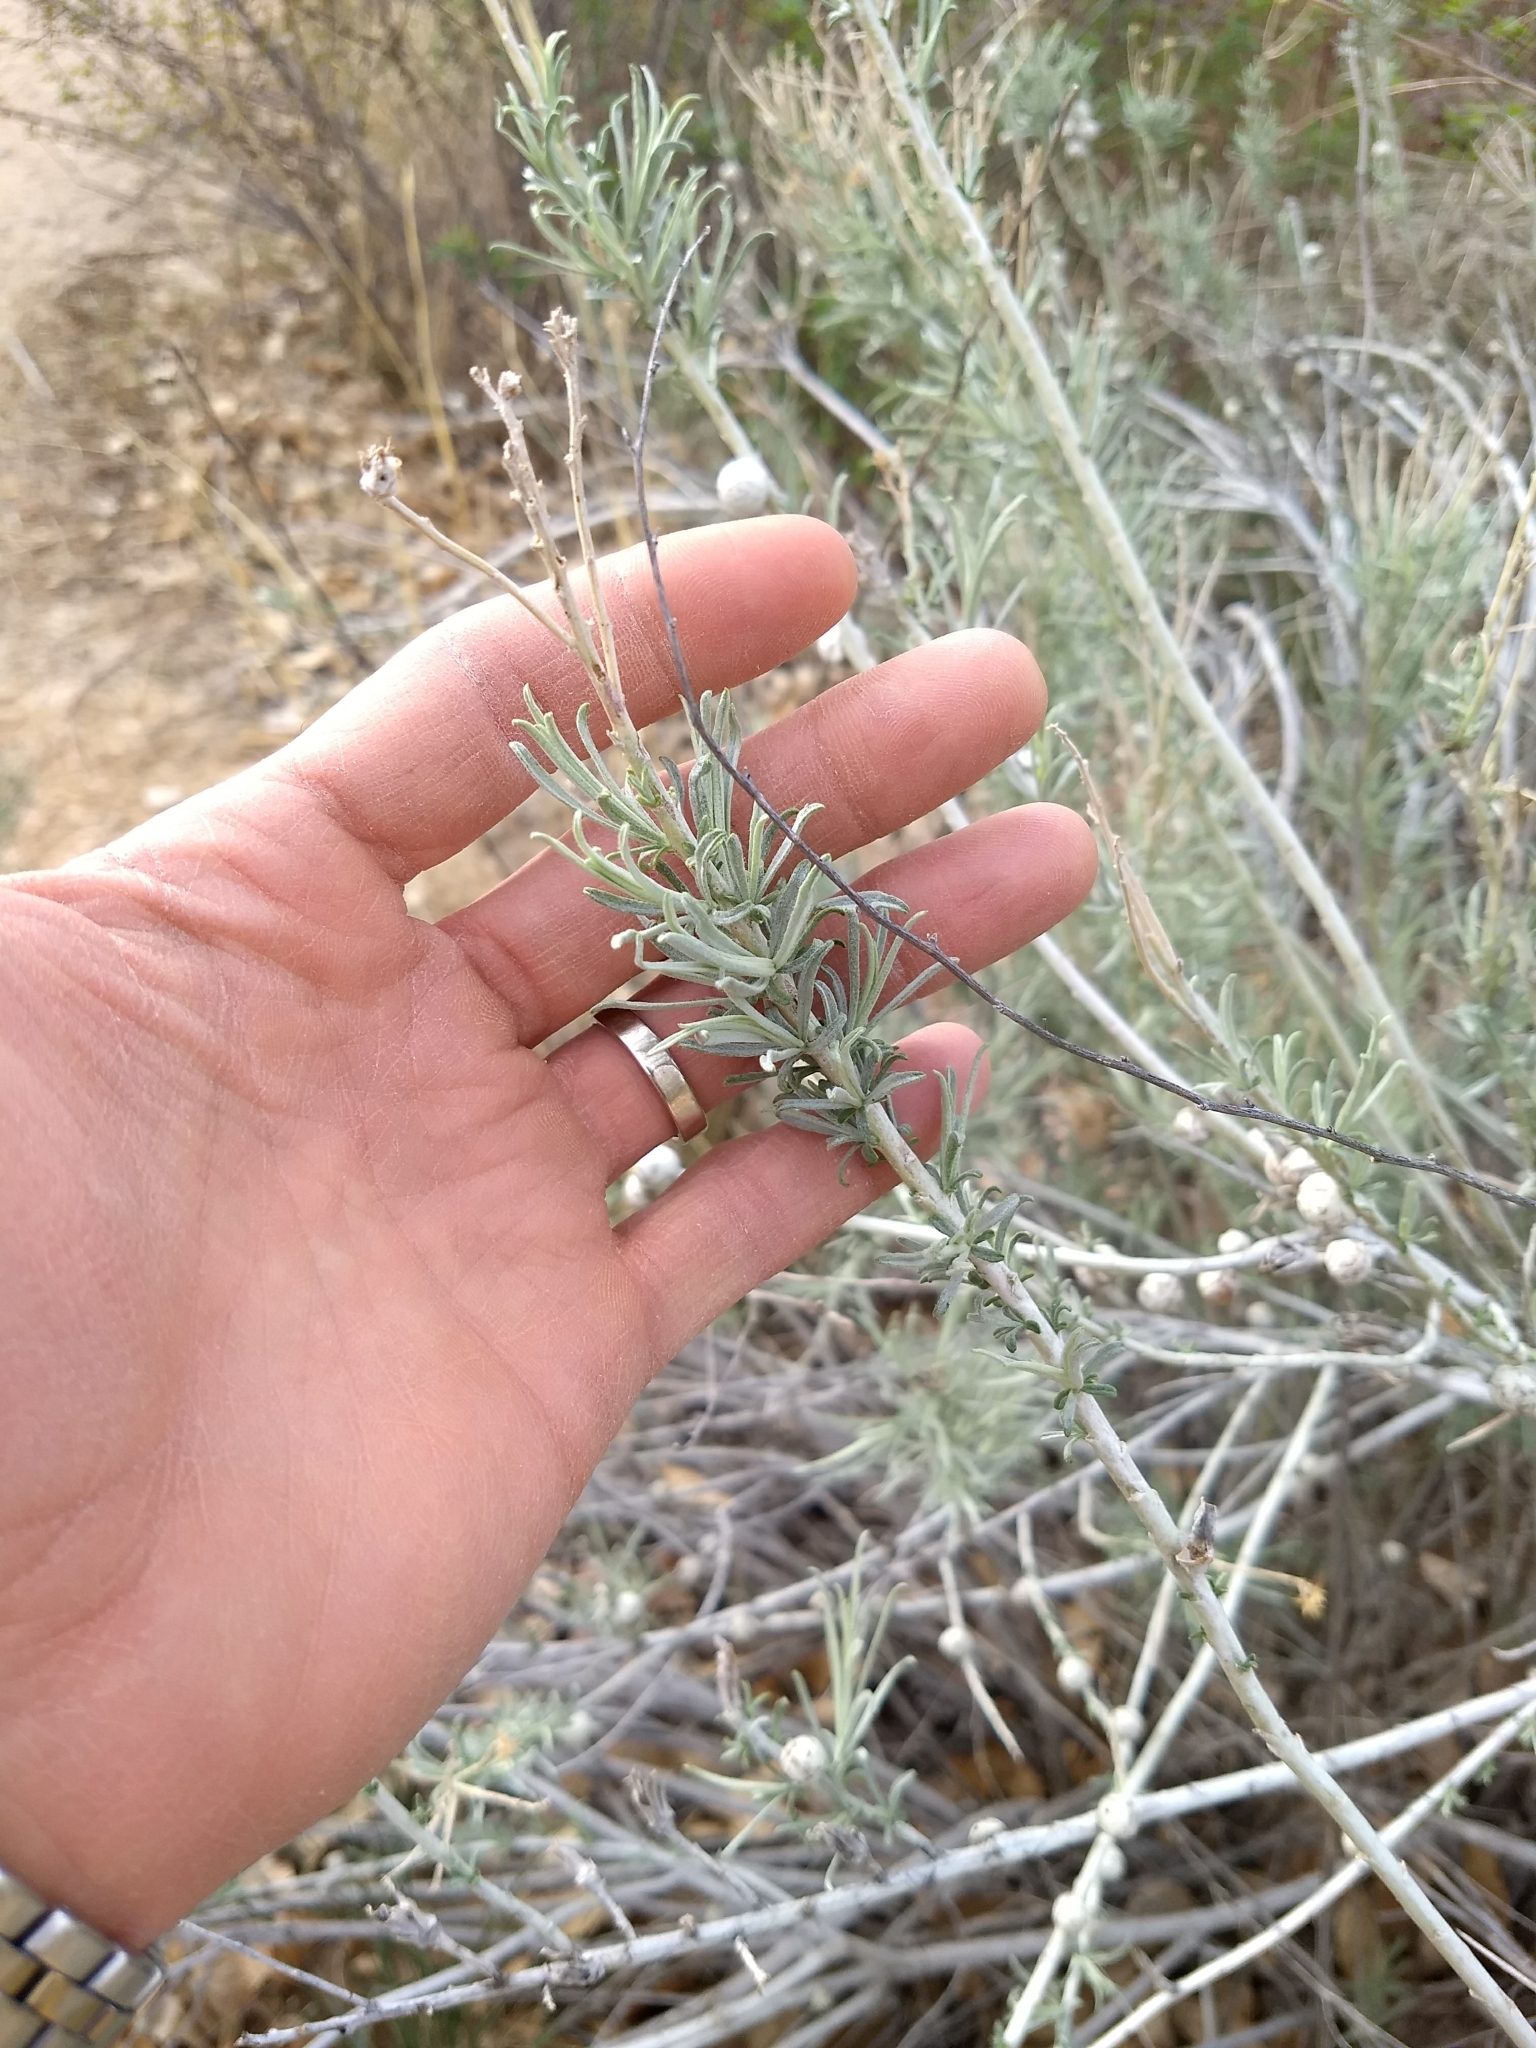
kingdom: Animalia
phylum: Arthropoda
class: Insecta
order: Diptera
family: Tephritidae
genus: Aciurina
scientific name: Aciurina trixa
